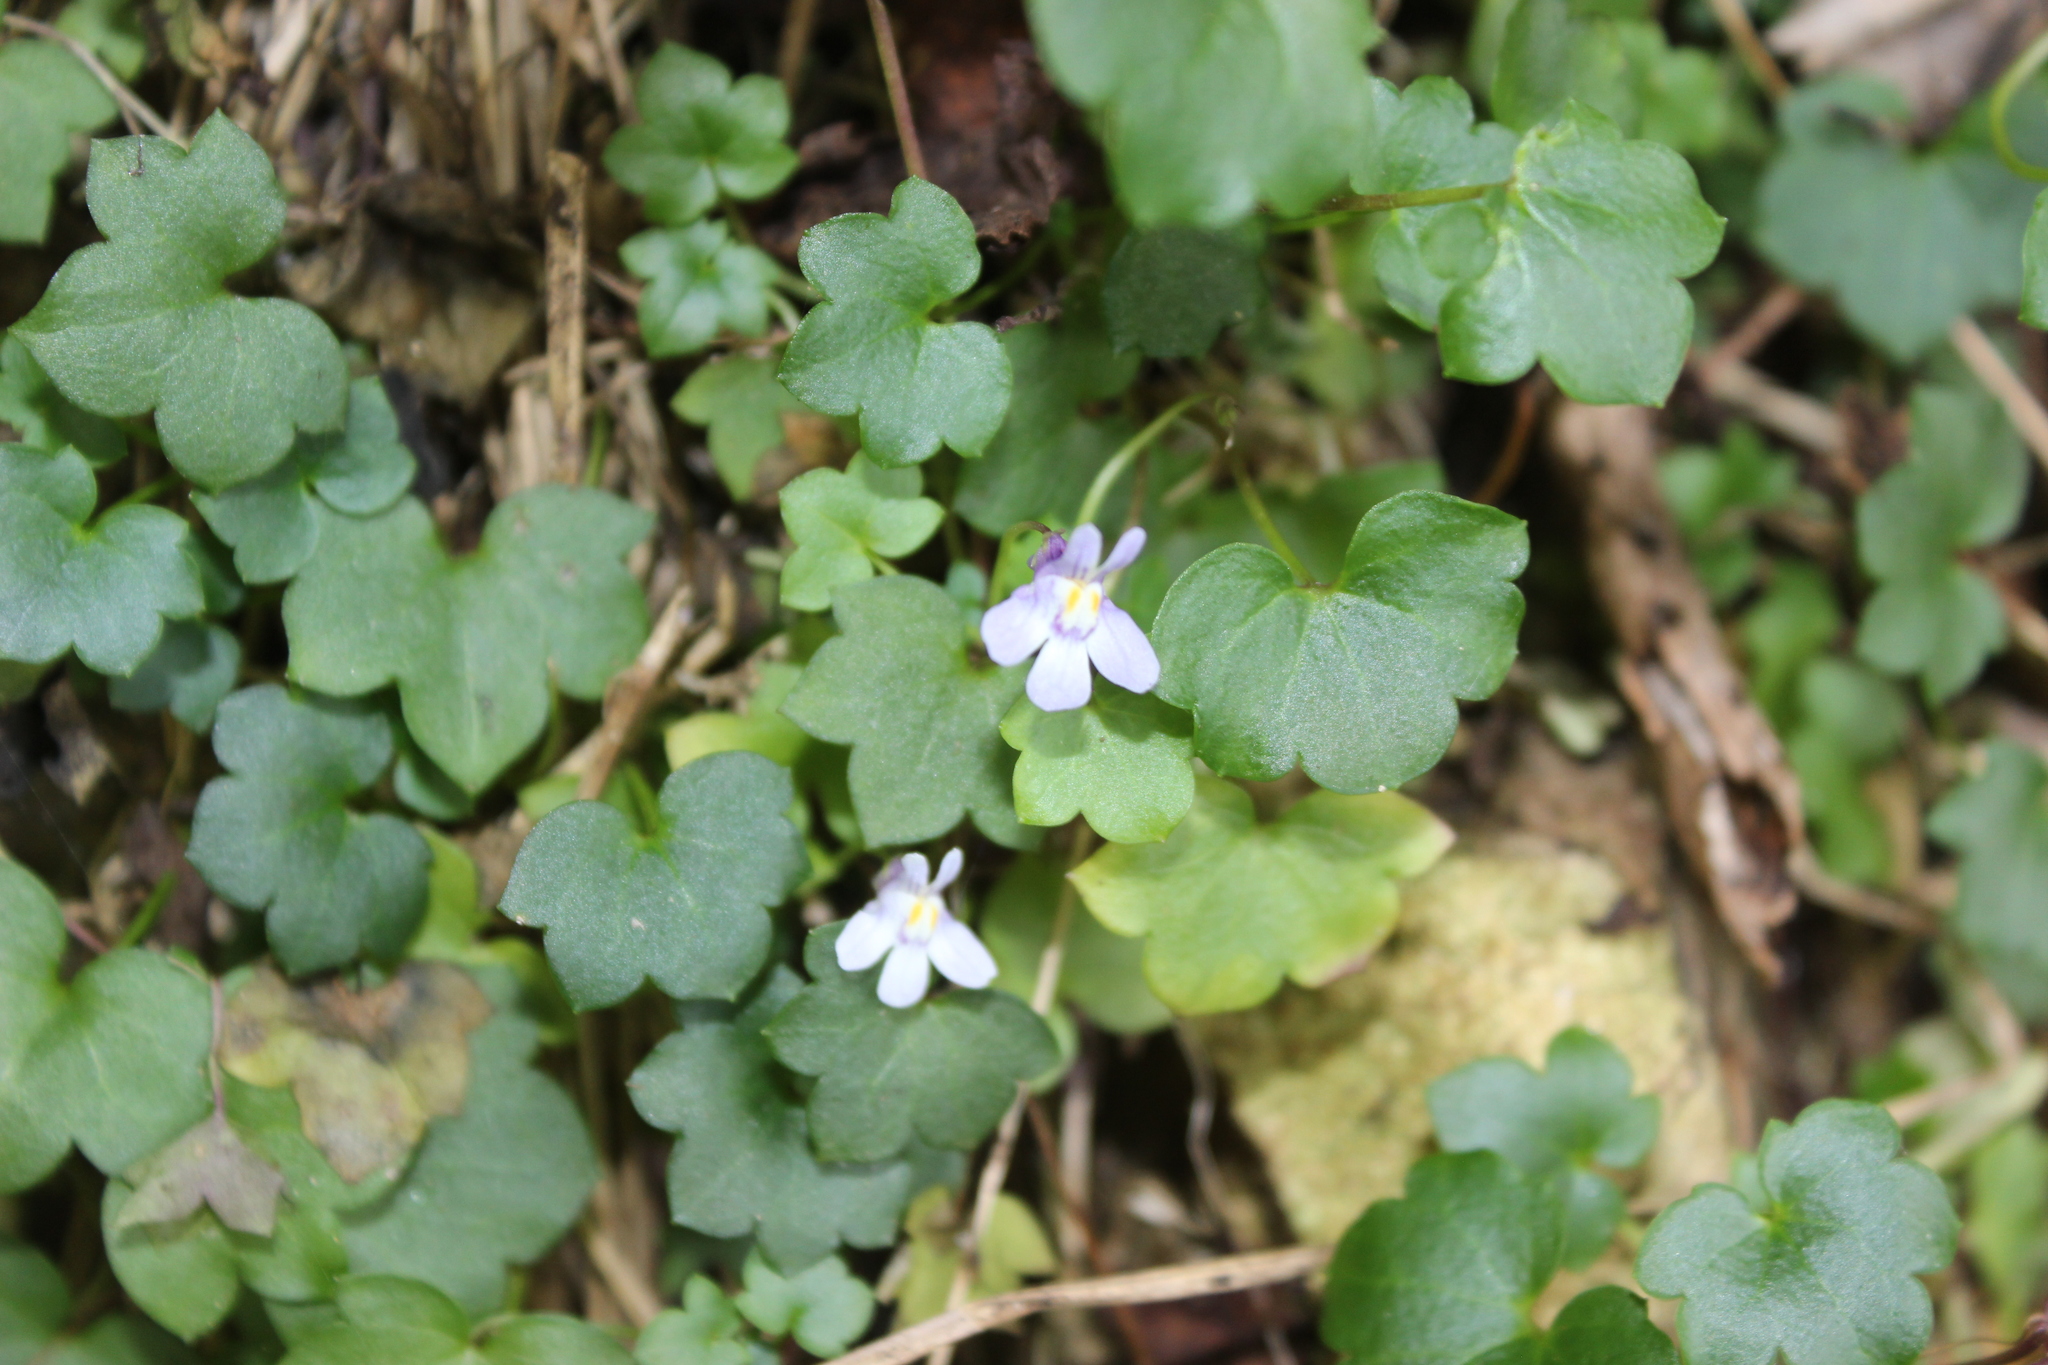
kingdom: Plantae
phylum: Tracheophyta
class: Magnoliopsida
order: Lamiales
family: Plantaginaceae
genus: Cymbalaria
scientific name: Cymbalaria muralis
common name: Ivy-leaved toadflax
